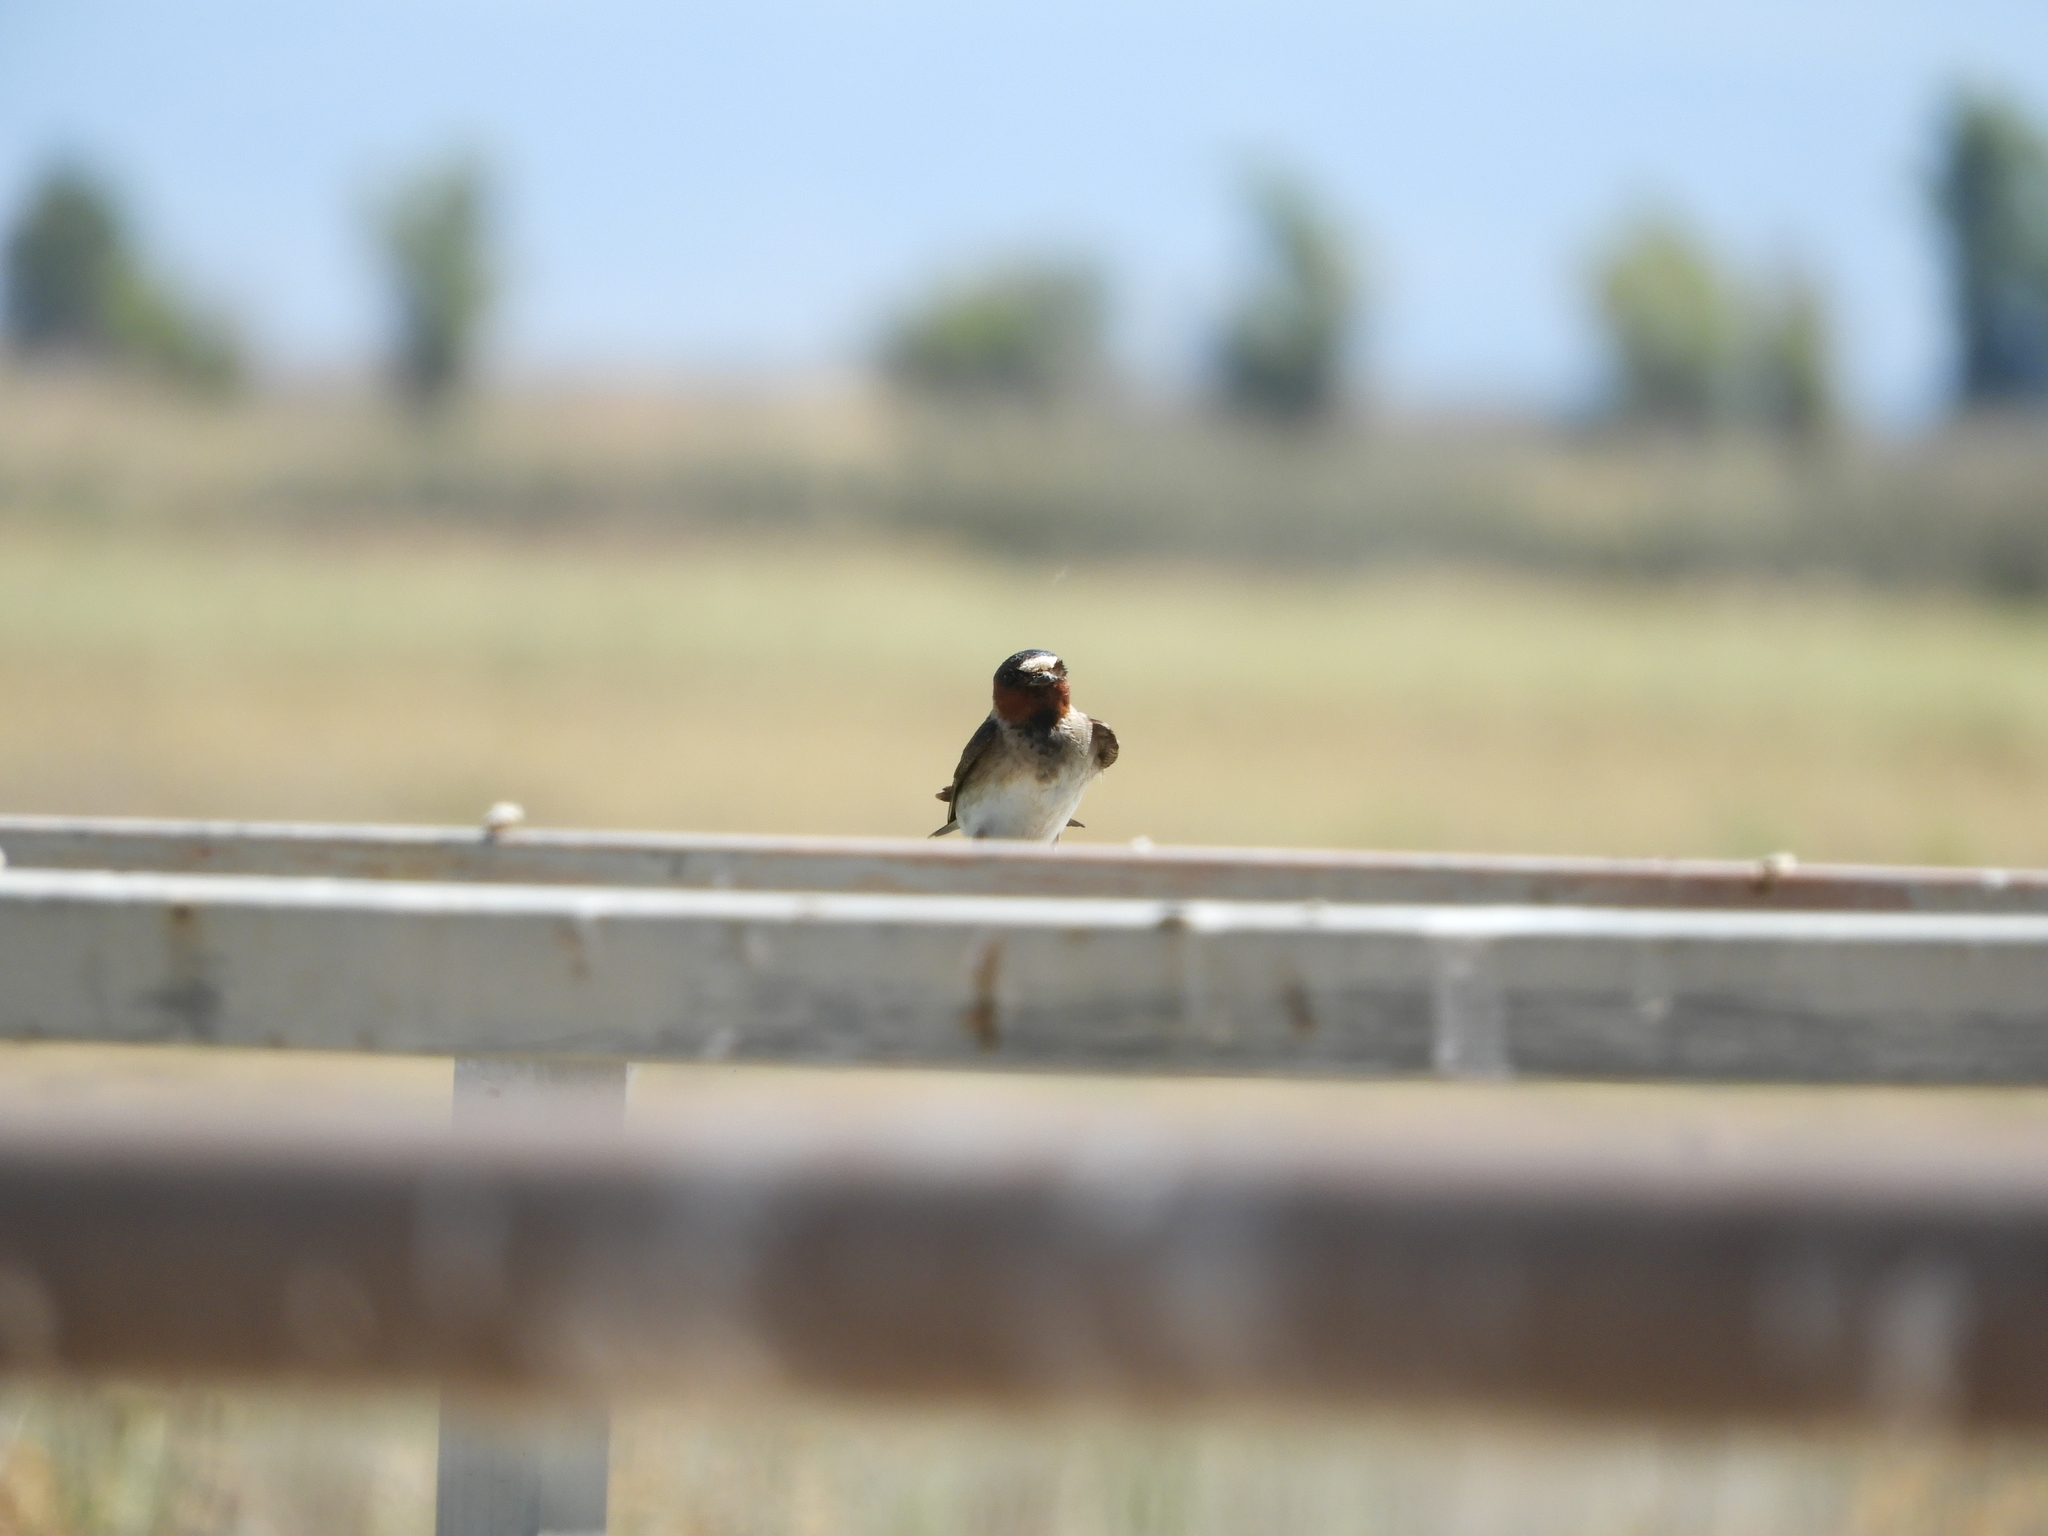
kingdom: Animalia
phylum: Chordata
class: Aves
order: Passeriformes
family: Hirundinidae
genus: Petrochelidon
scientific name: Petrochelidon pyrrhonota
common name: American cliff swallow
